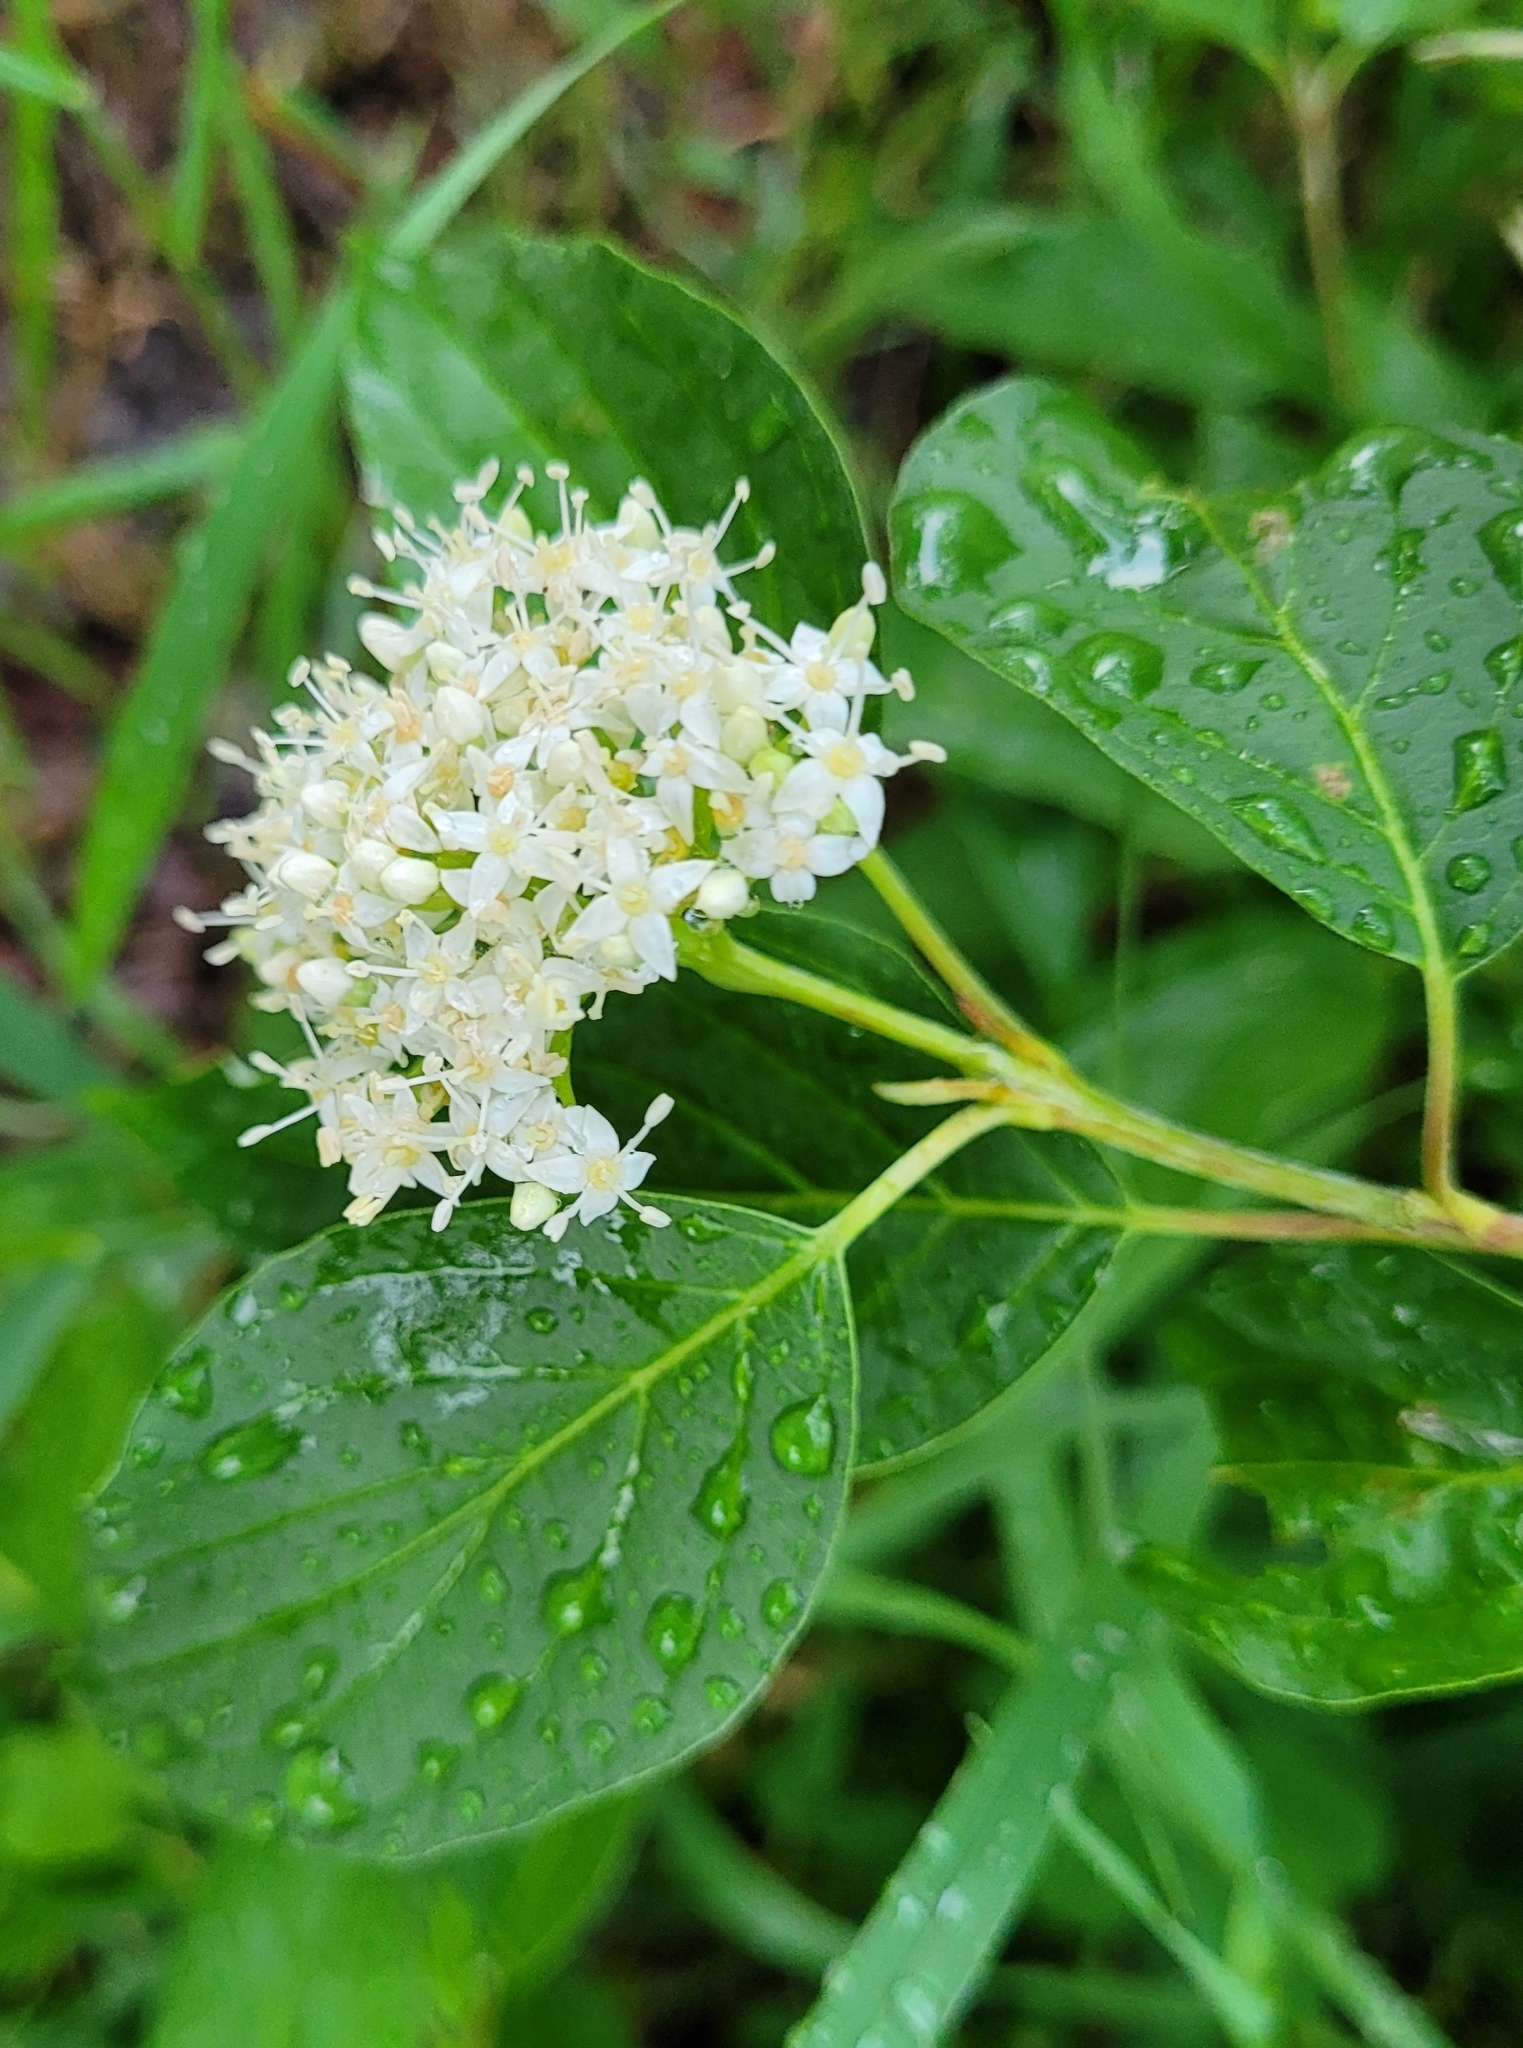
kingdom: Plantae
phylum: Tracheophyta
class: Magnoliopsida
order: Cornales
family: Cornaceae
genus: Cornus
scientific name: Cornus sericea
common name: Red-osier dogwood
